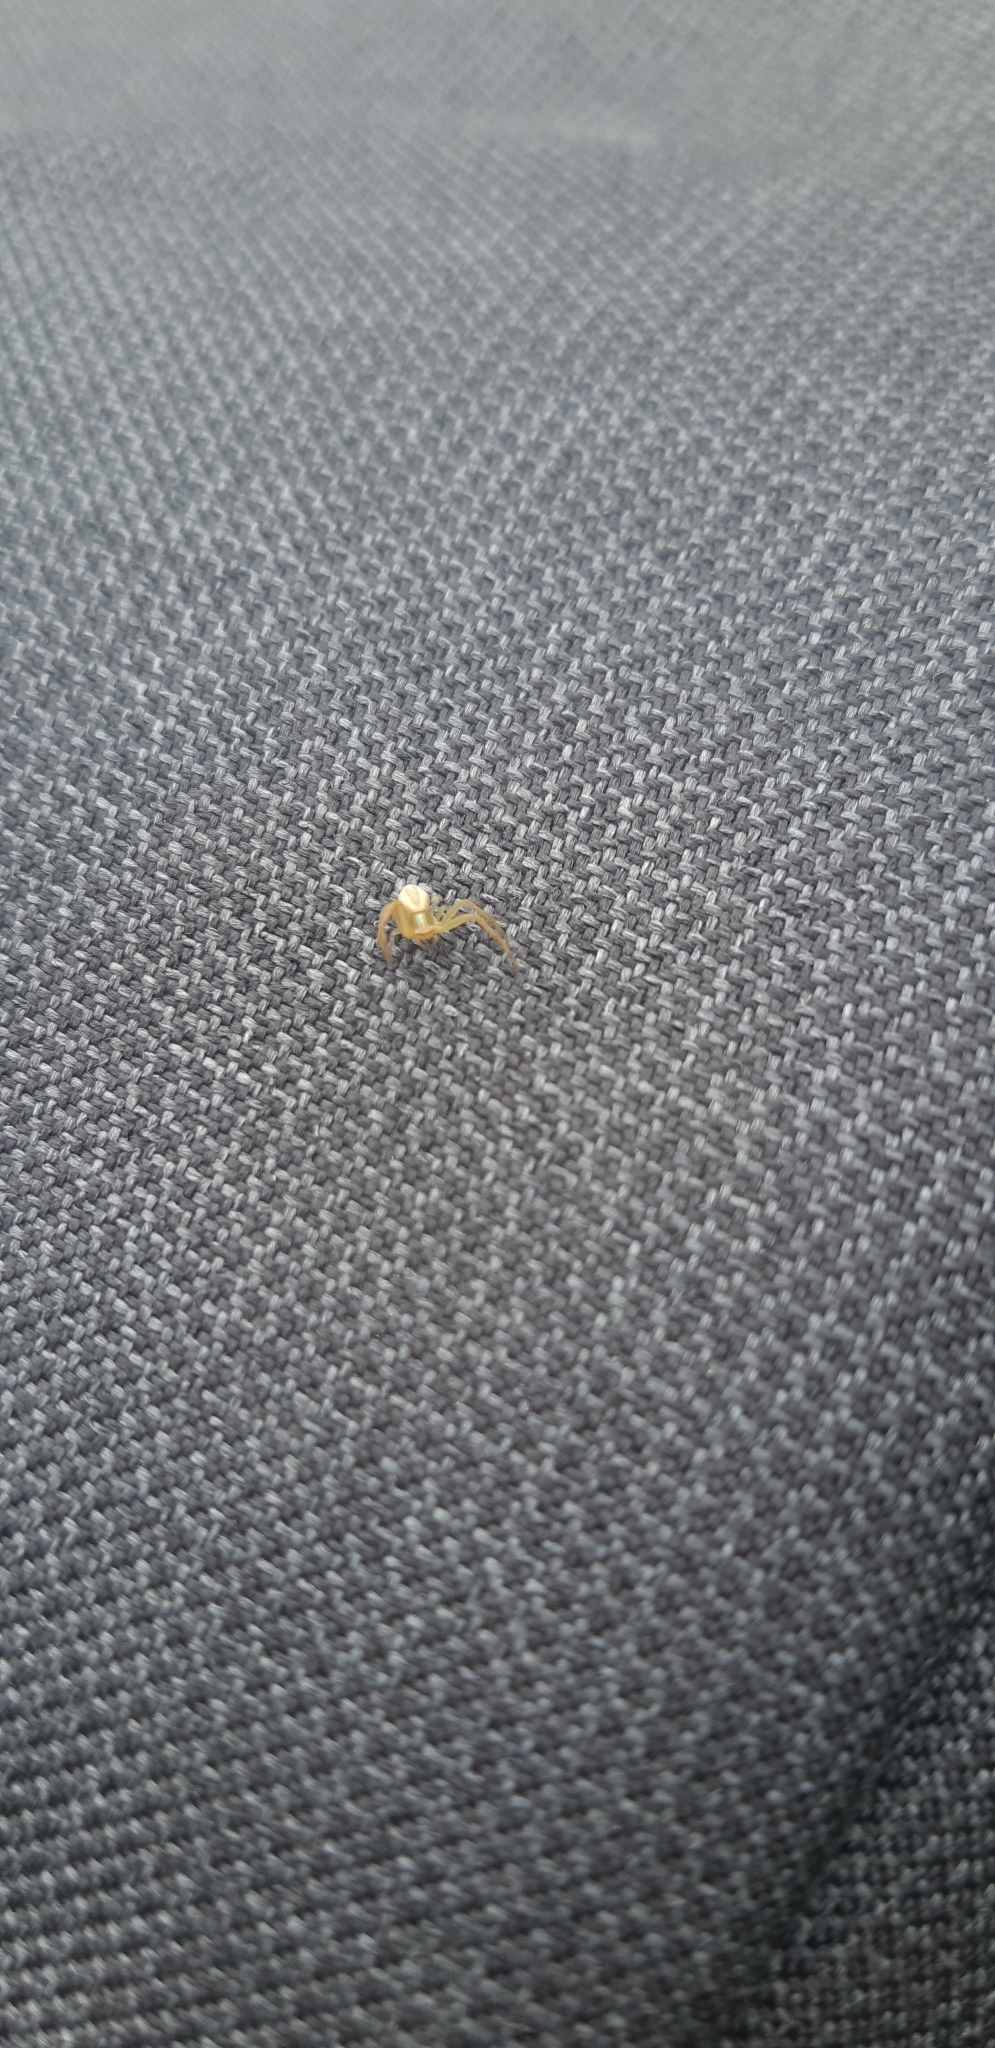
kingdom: Animalia
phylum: Arthropoda
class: Arachnida
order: Araneae
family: Thomisidae
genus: Runcinia
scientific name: Runcinia grammica
